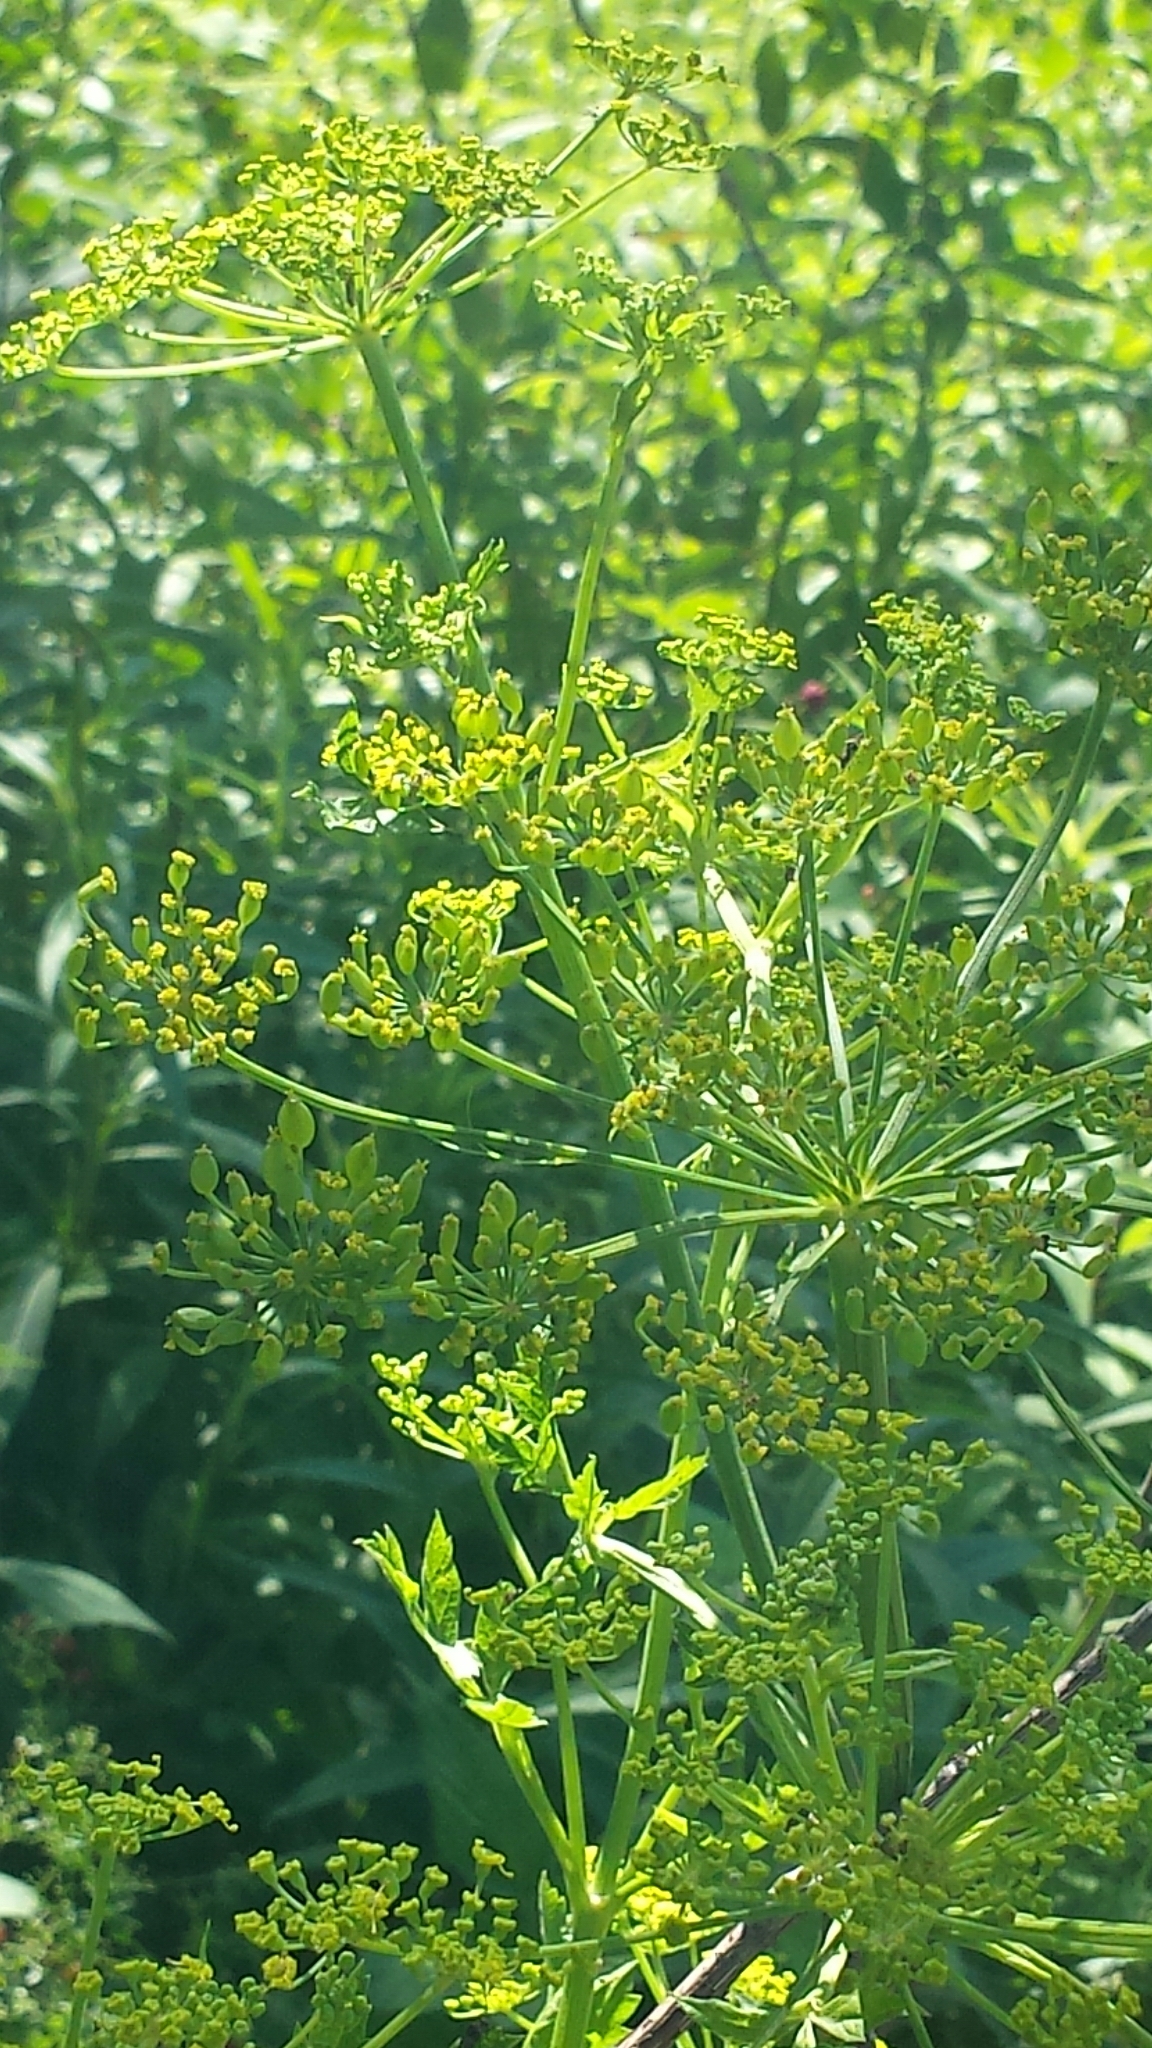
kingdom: Plantae
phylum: Tracheophyta
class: Magnoliopsida
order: Apiales
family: Apiaceae
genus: Pastinaca
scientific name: Pastinaca sativa
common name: Wild parsnip
